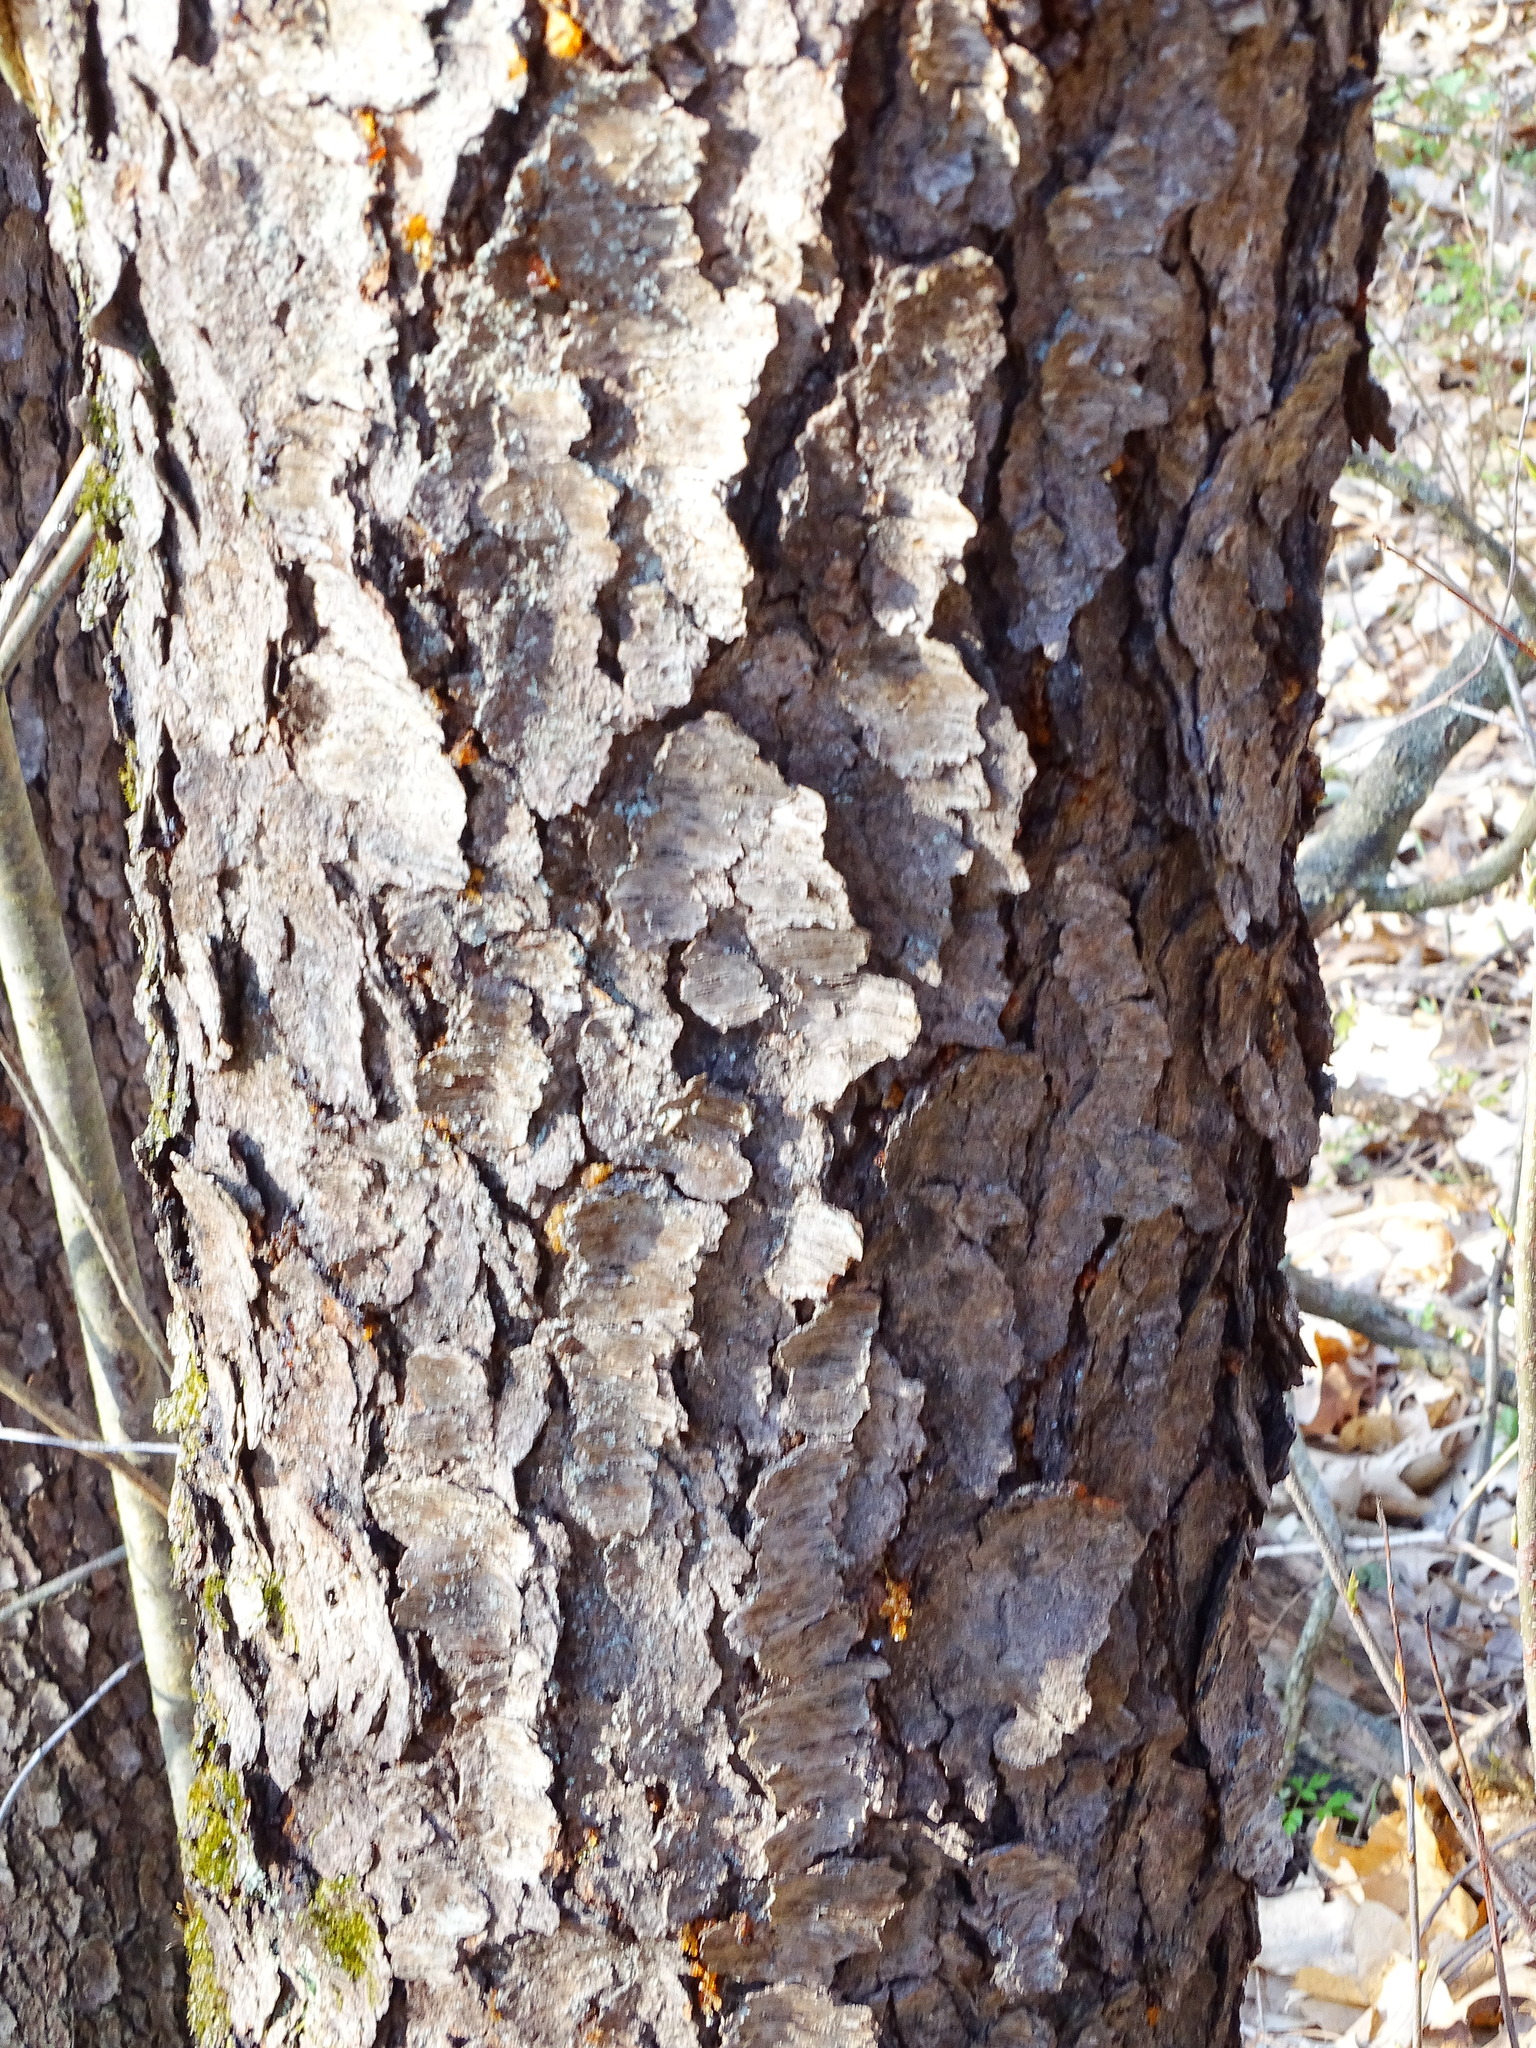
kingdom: Plantae
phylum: Tracheophyta
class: Magnoliopsida
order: Rosales
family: Rosaceae
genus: Prunus
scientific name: Prunus serotina
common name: Black cherry
